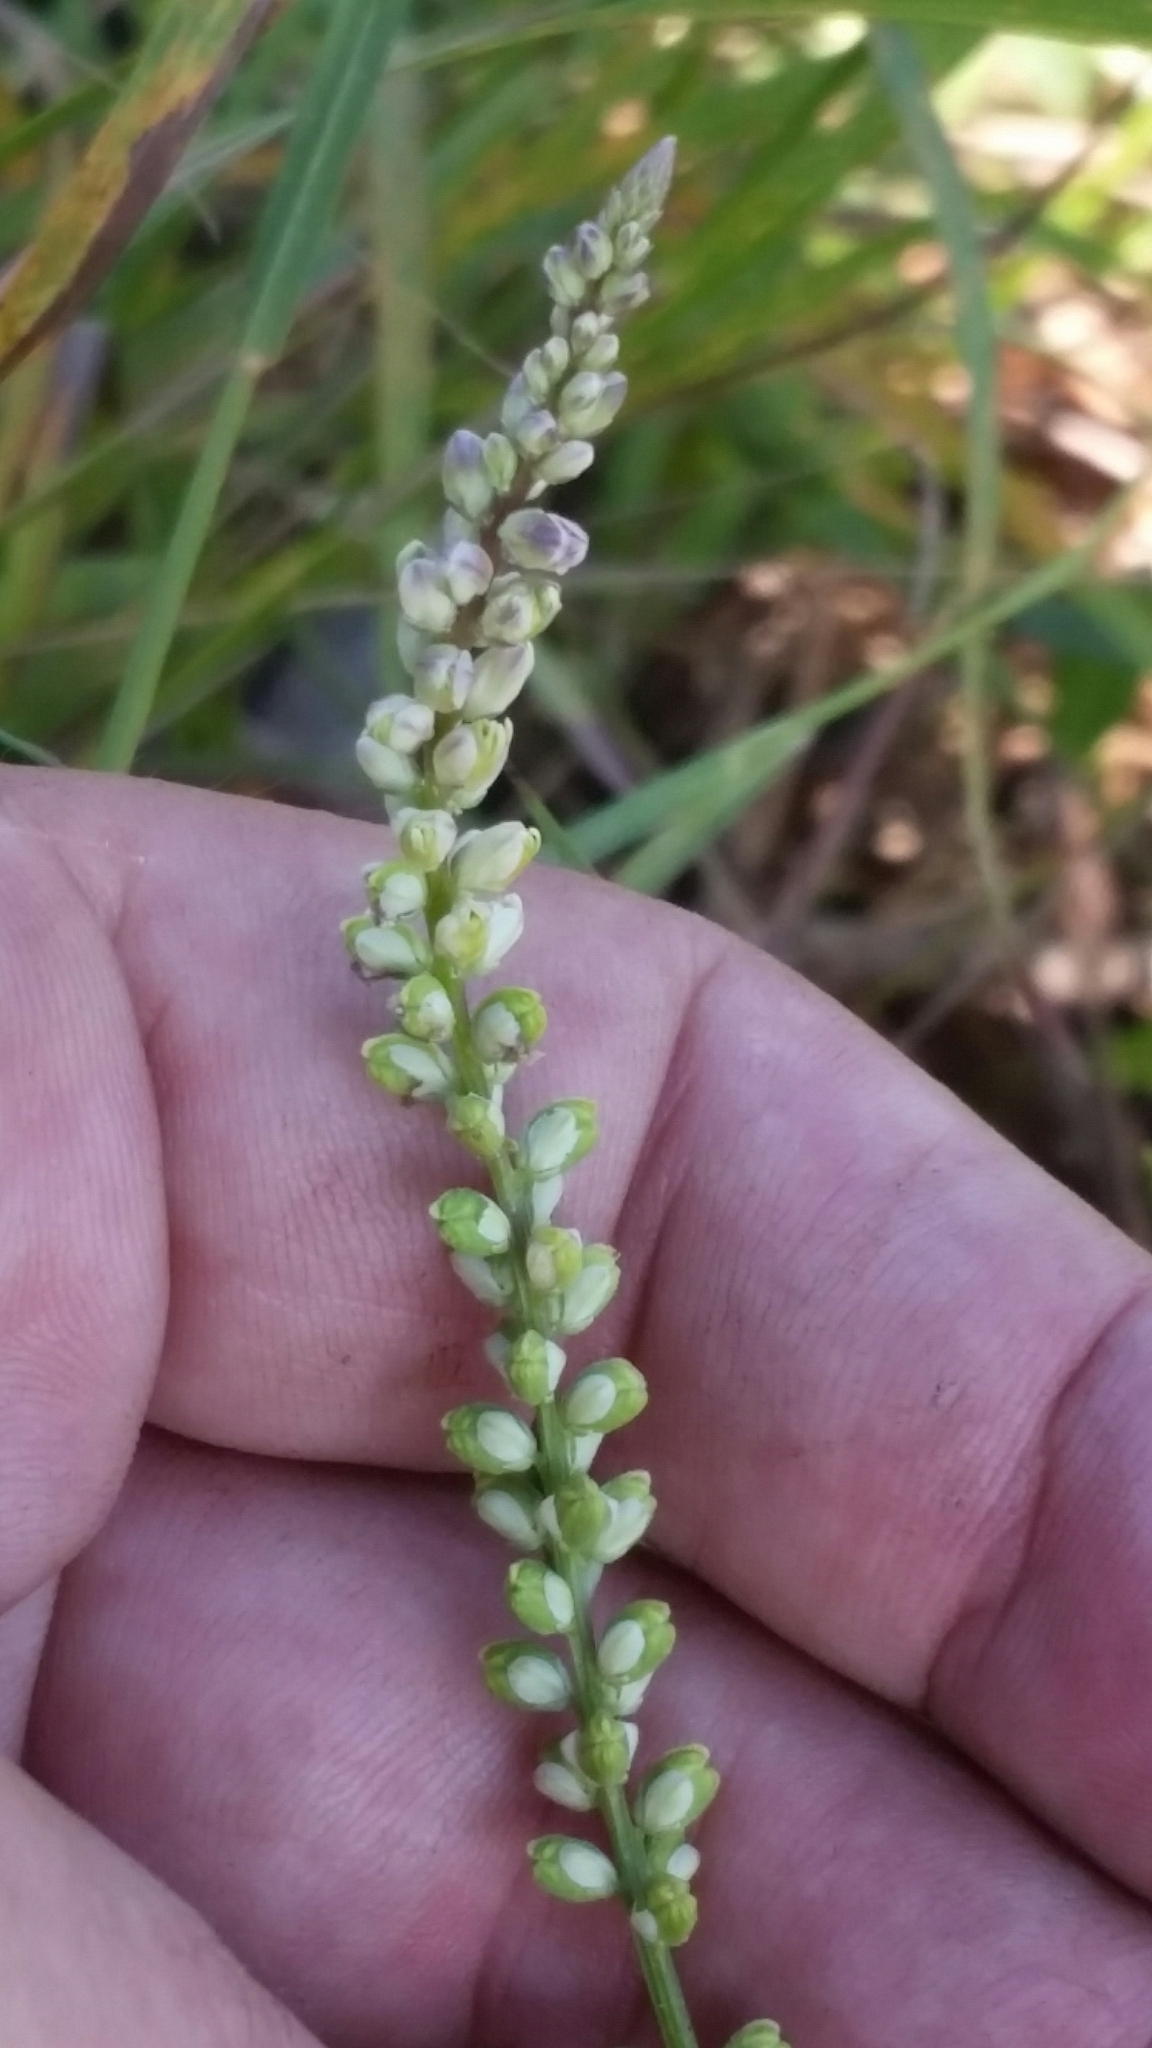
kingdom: Plantae
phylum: Tracheophyta
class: Magnoliopsida
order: Fabales
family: Polygalaceae
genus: Polygala
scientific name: Polygala boykinii
